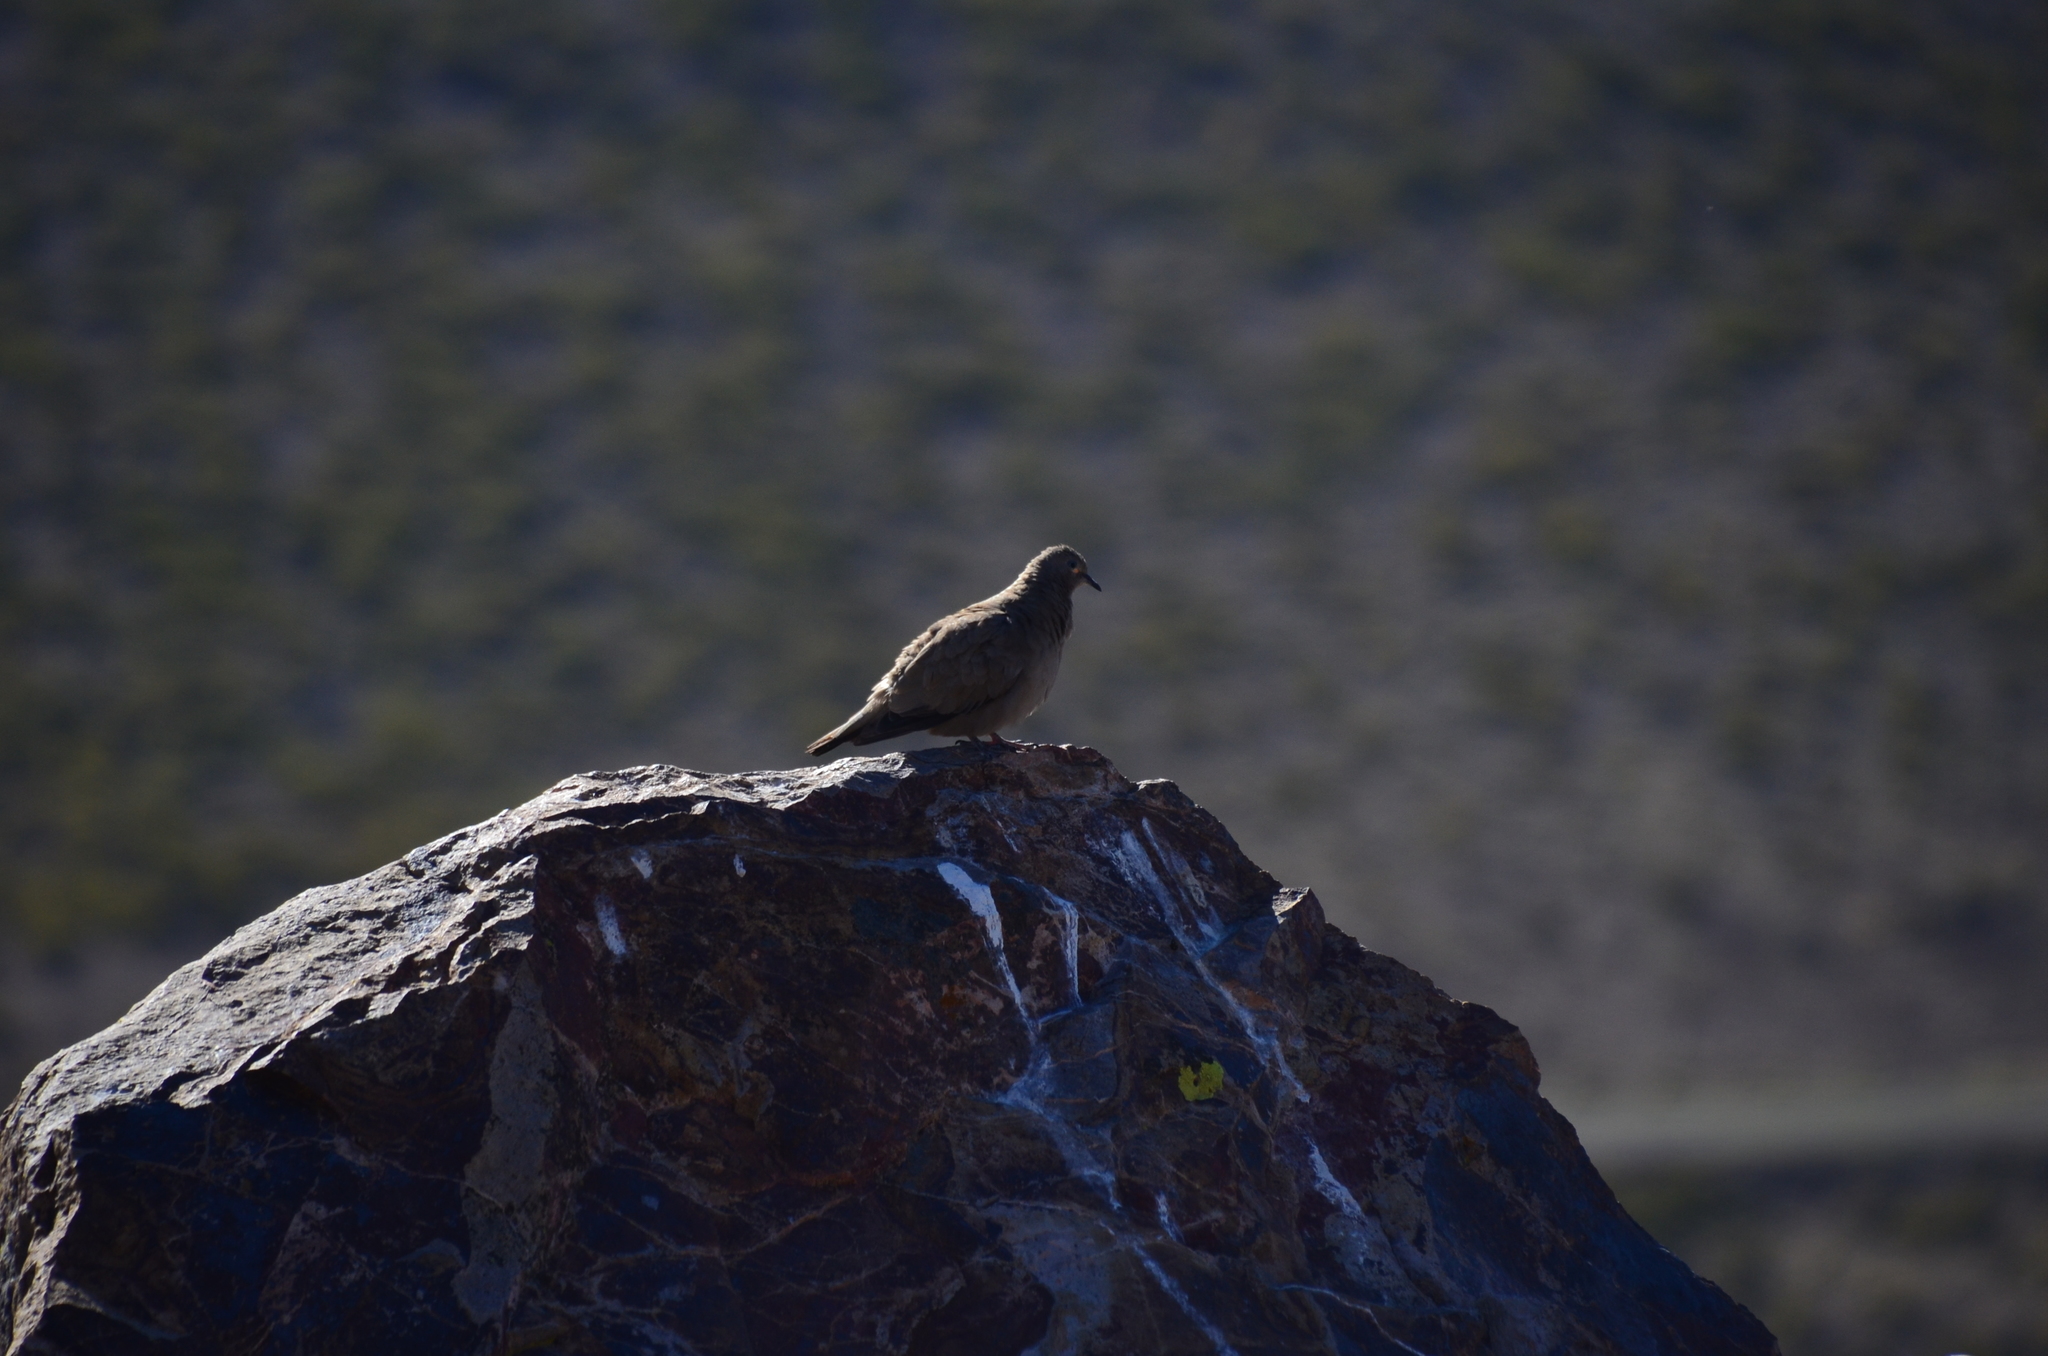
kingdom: Animalia
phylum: Chordata
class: Aves
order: Columbiformes
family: Columbidae
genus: Metriopelia
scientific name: Metriopelia melanoptera
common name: Black-winged ground dove
